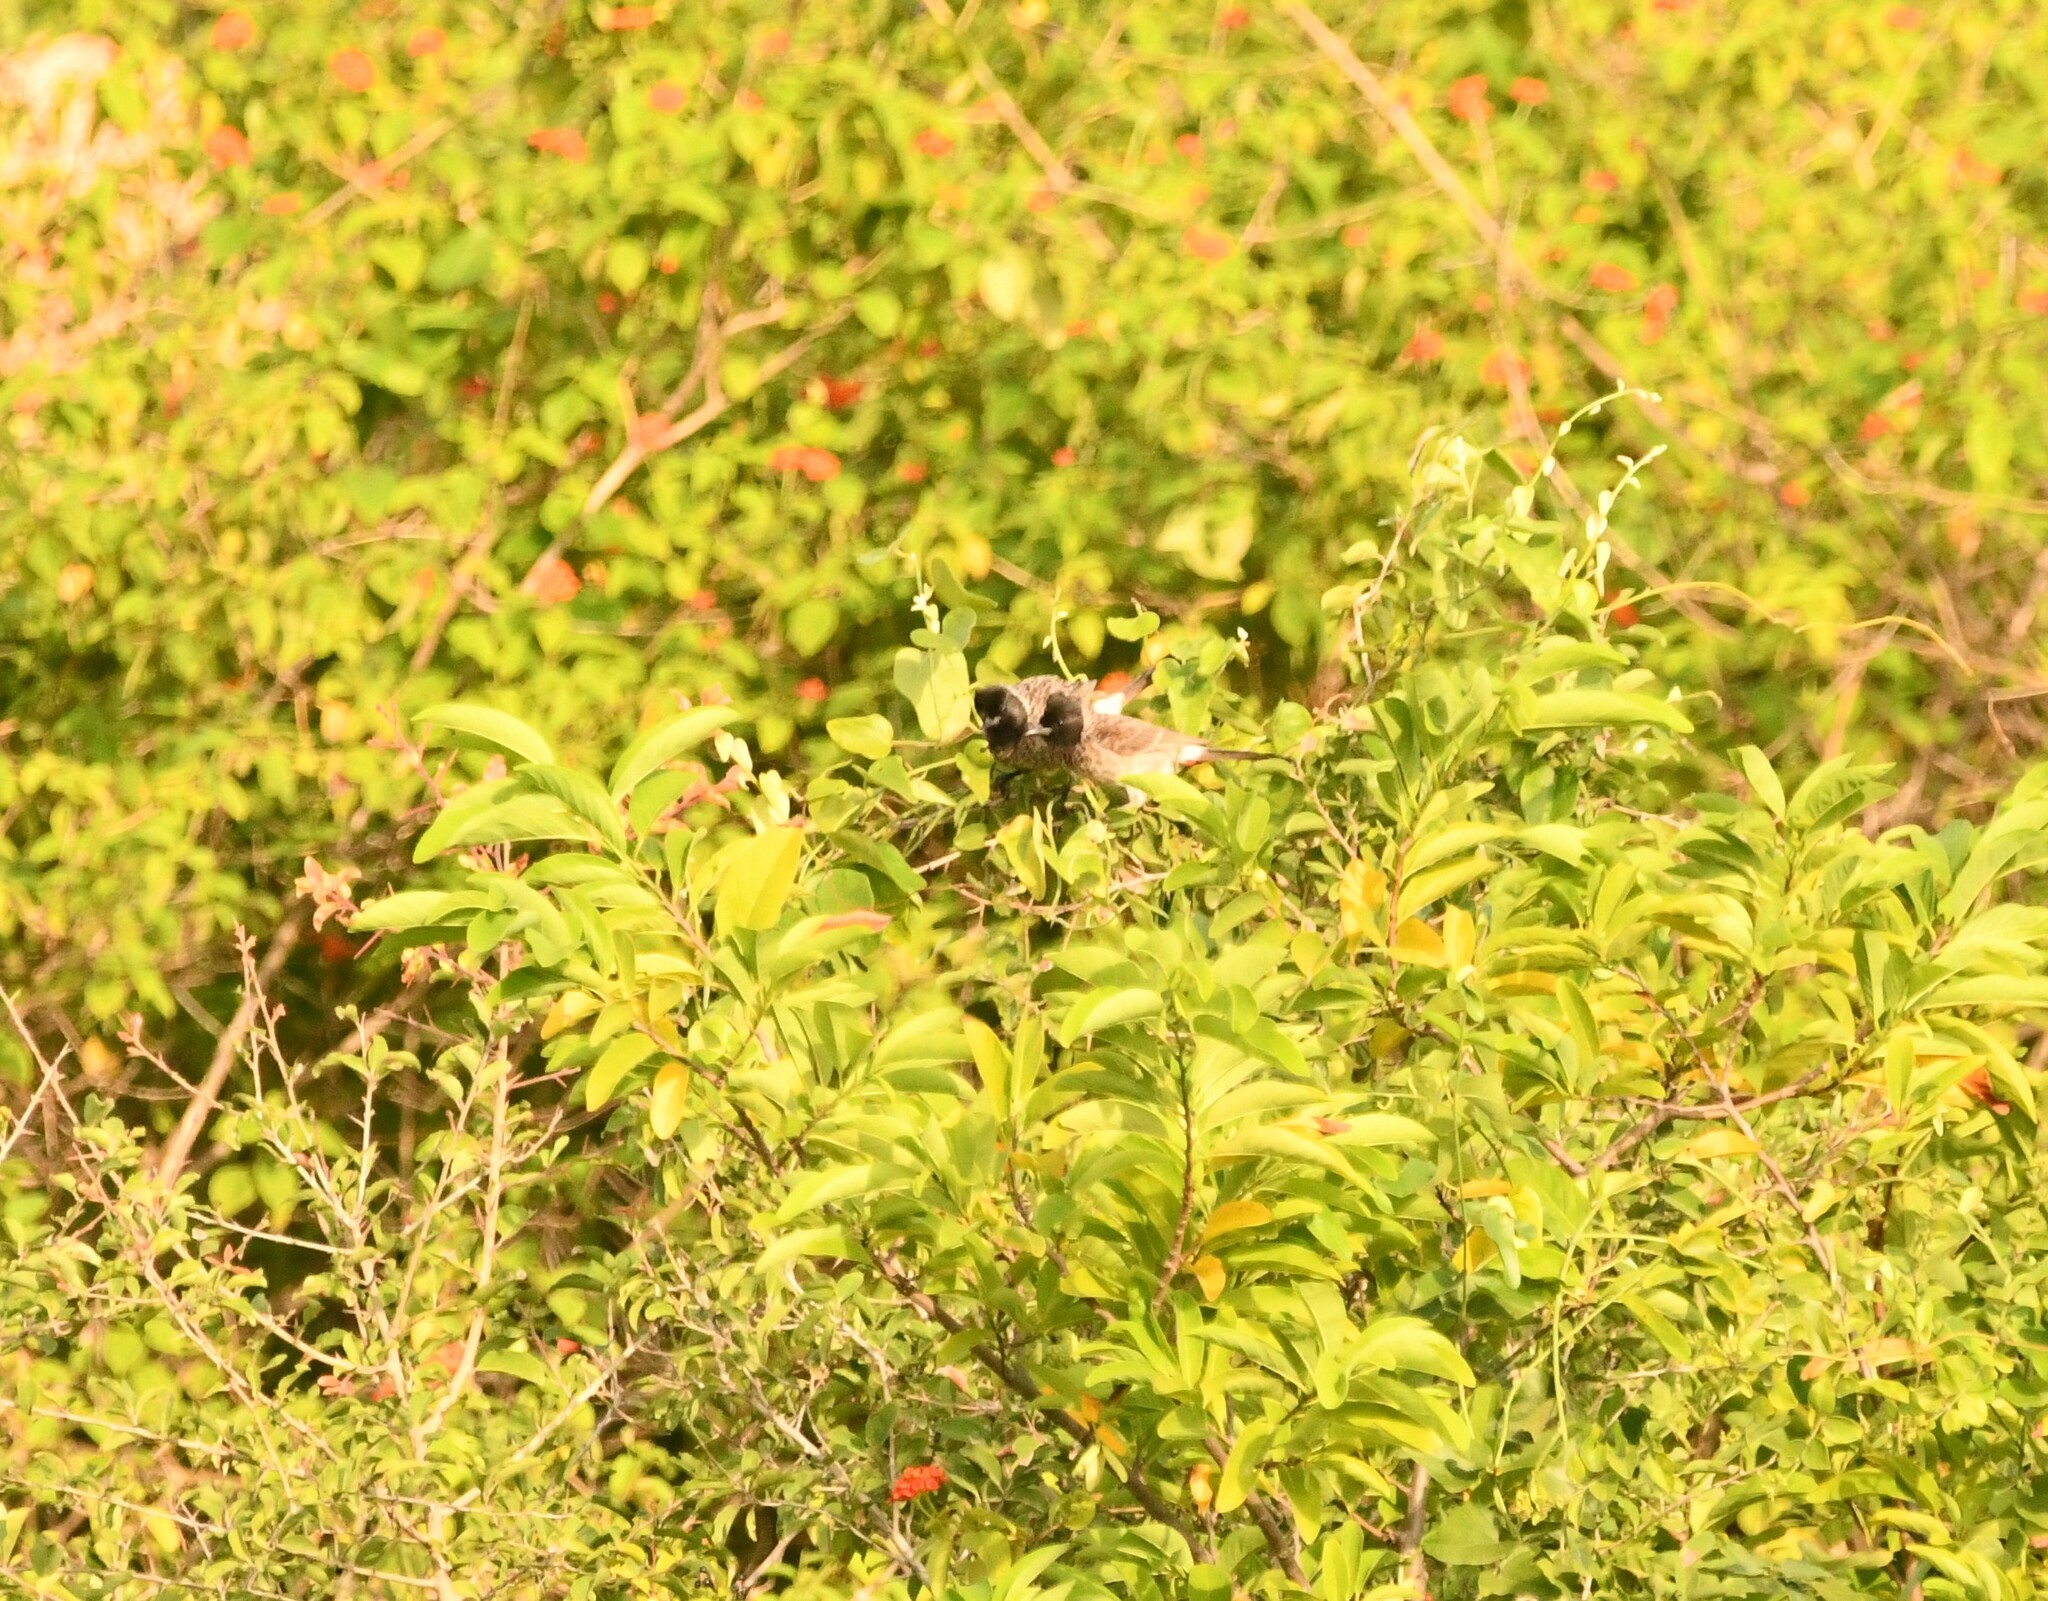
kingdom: Animalia
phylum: Chordata
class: Aves
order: Passeriformes
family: Pycnonotidae
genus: Pycnonotus
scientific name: Pycnonotus cafer
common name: Red-vented bulbul
